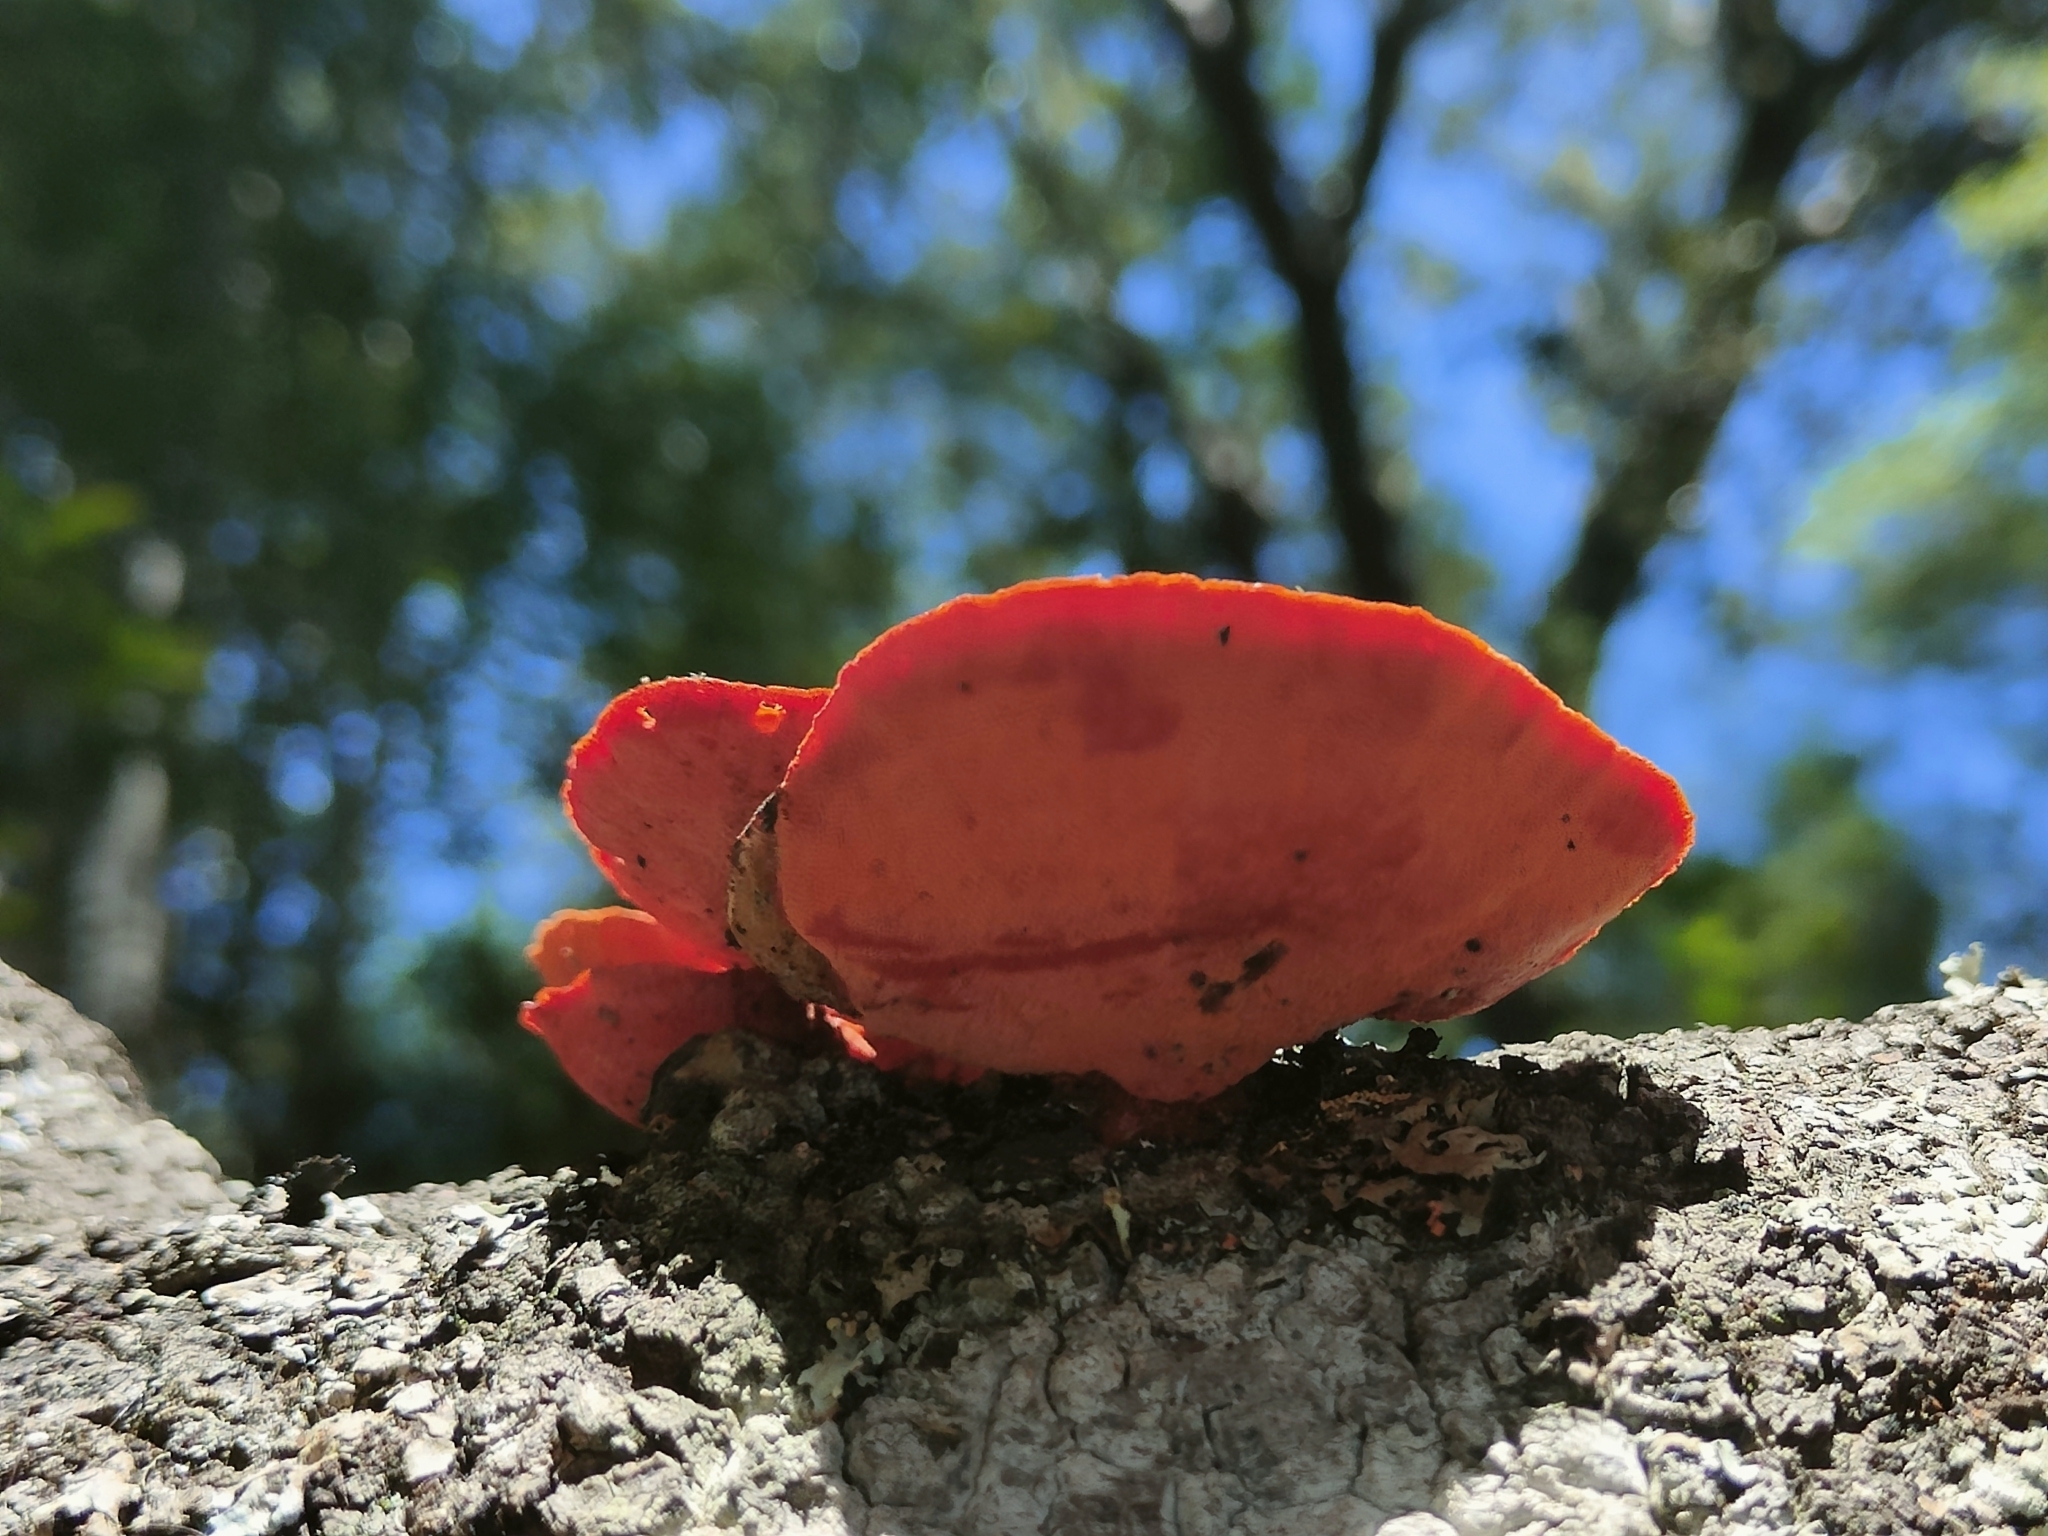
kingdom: Fungi
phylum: Basidiomycota
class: Agaricomycetes
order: Polyporales
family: Polyporaceae
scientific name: Polyporaceae
